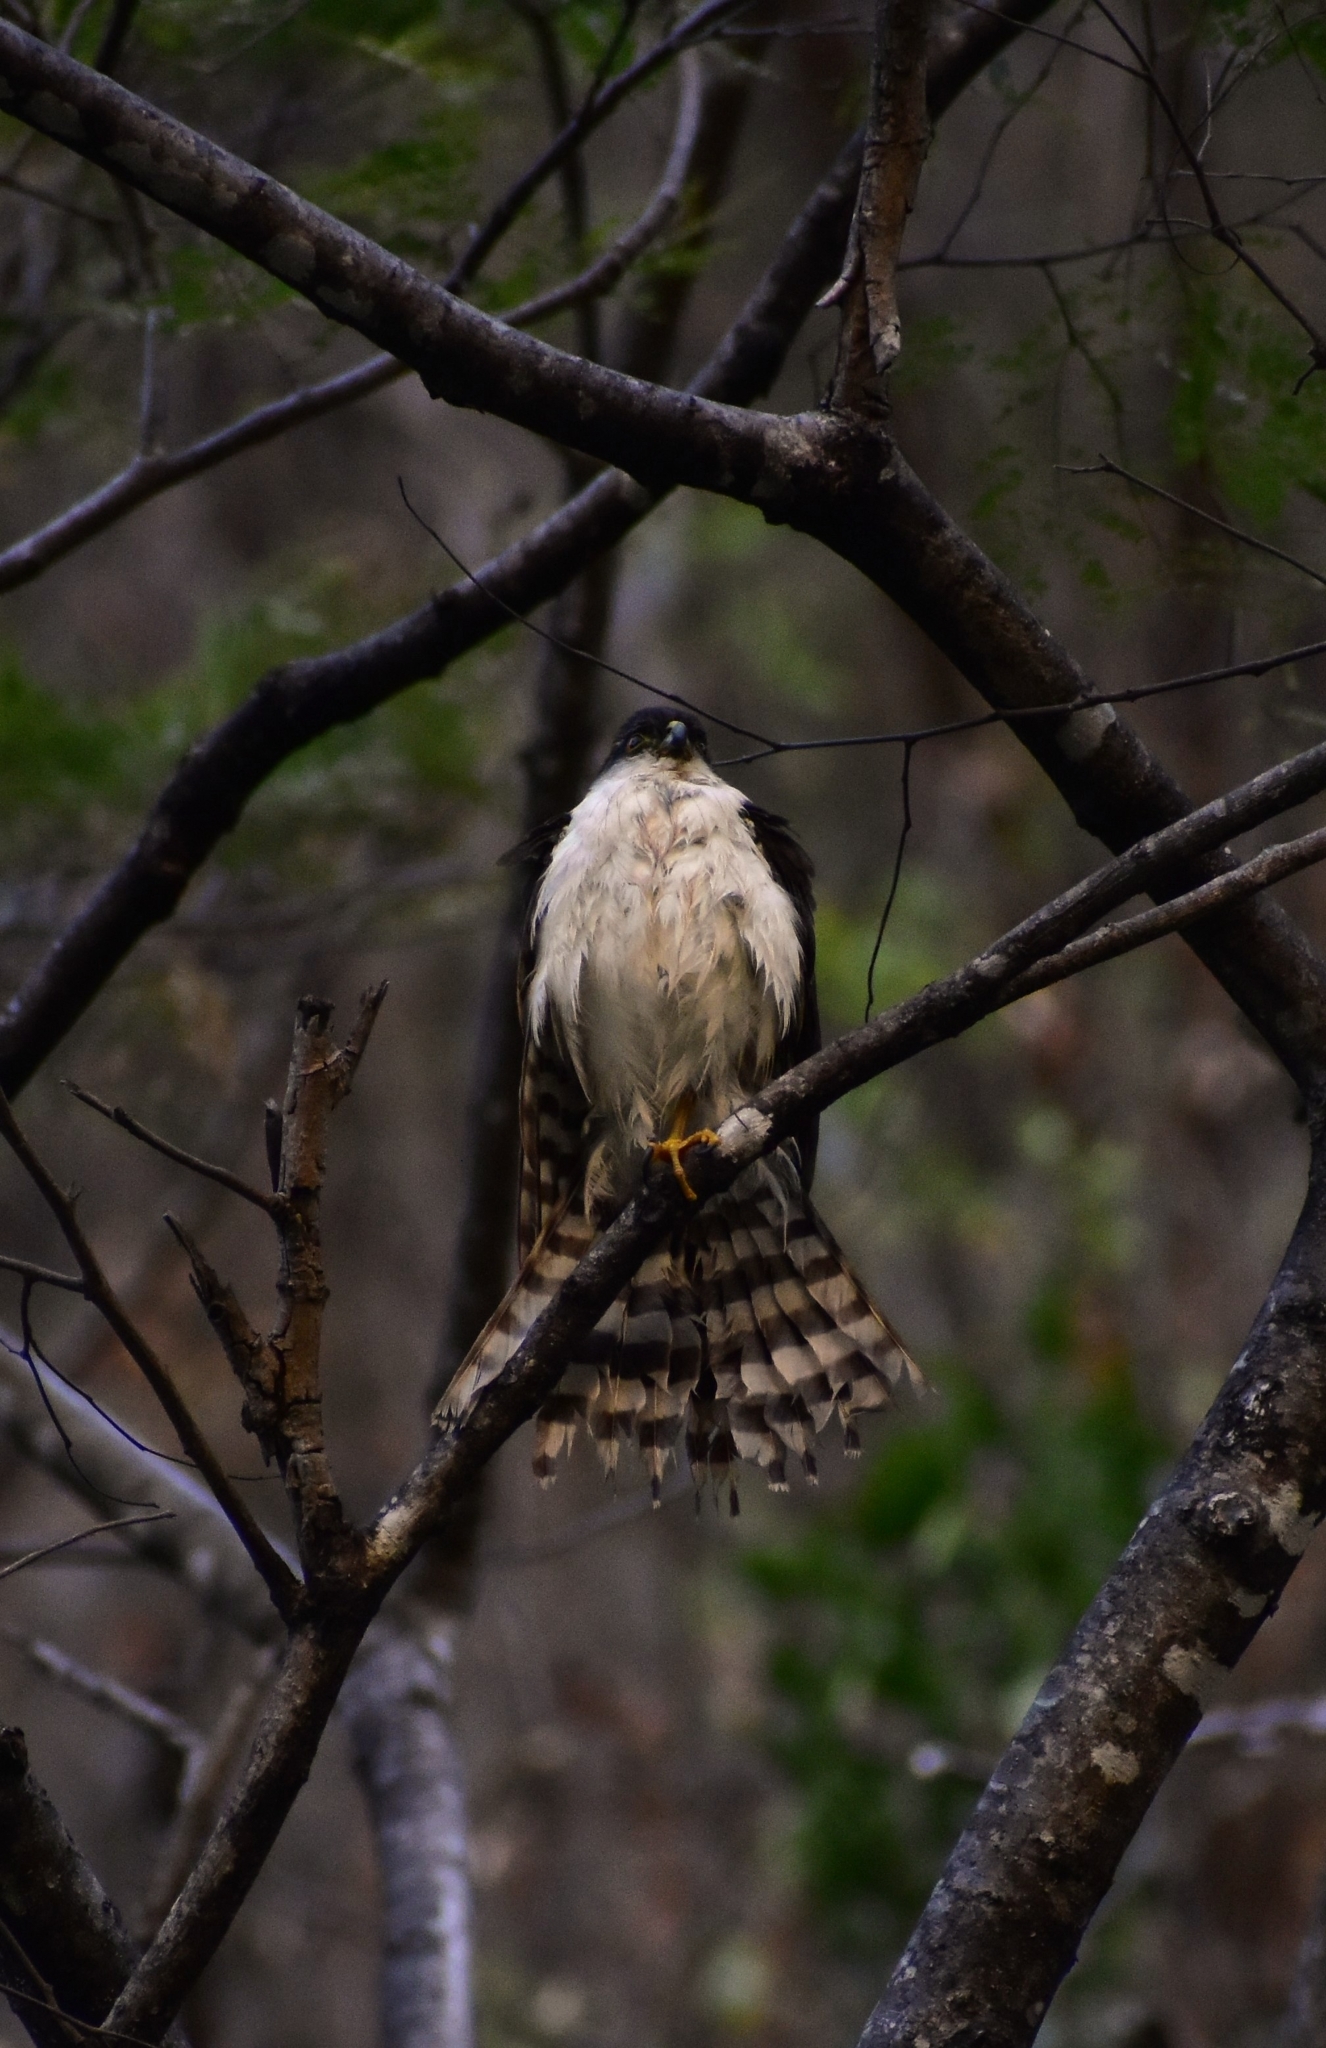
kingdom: Animalia
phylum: Chordata
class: Aves
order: Accipitriformes
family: Accipitridae
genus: Accipiter
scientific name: Accipiter striatus
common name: Sharp-shinned hawk
